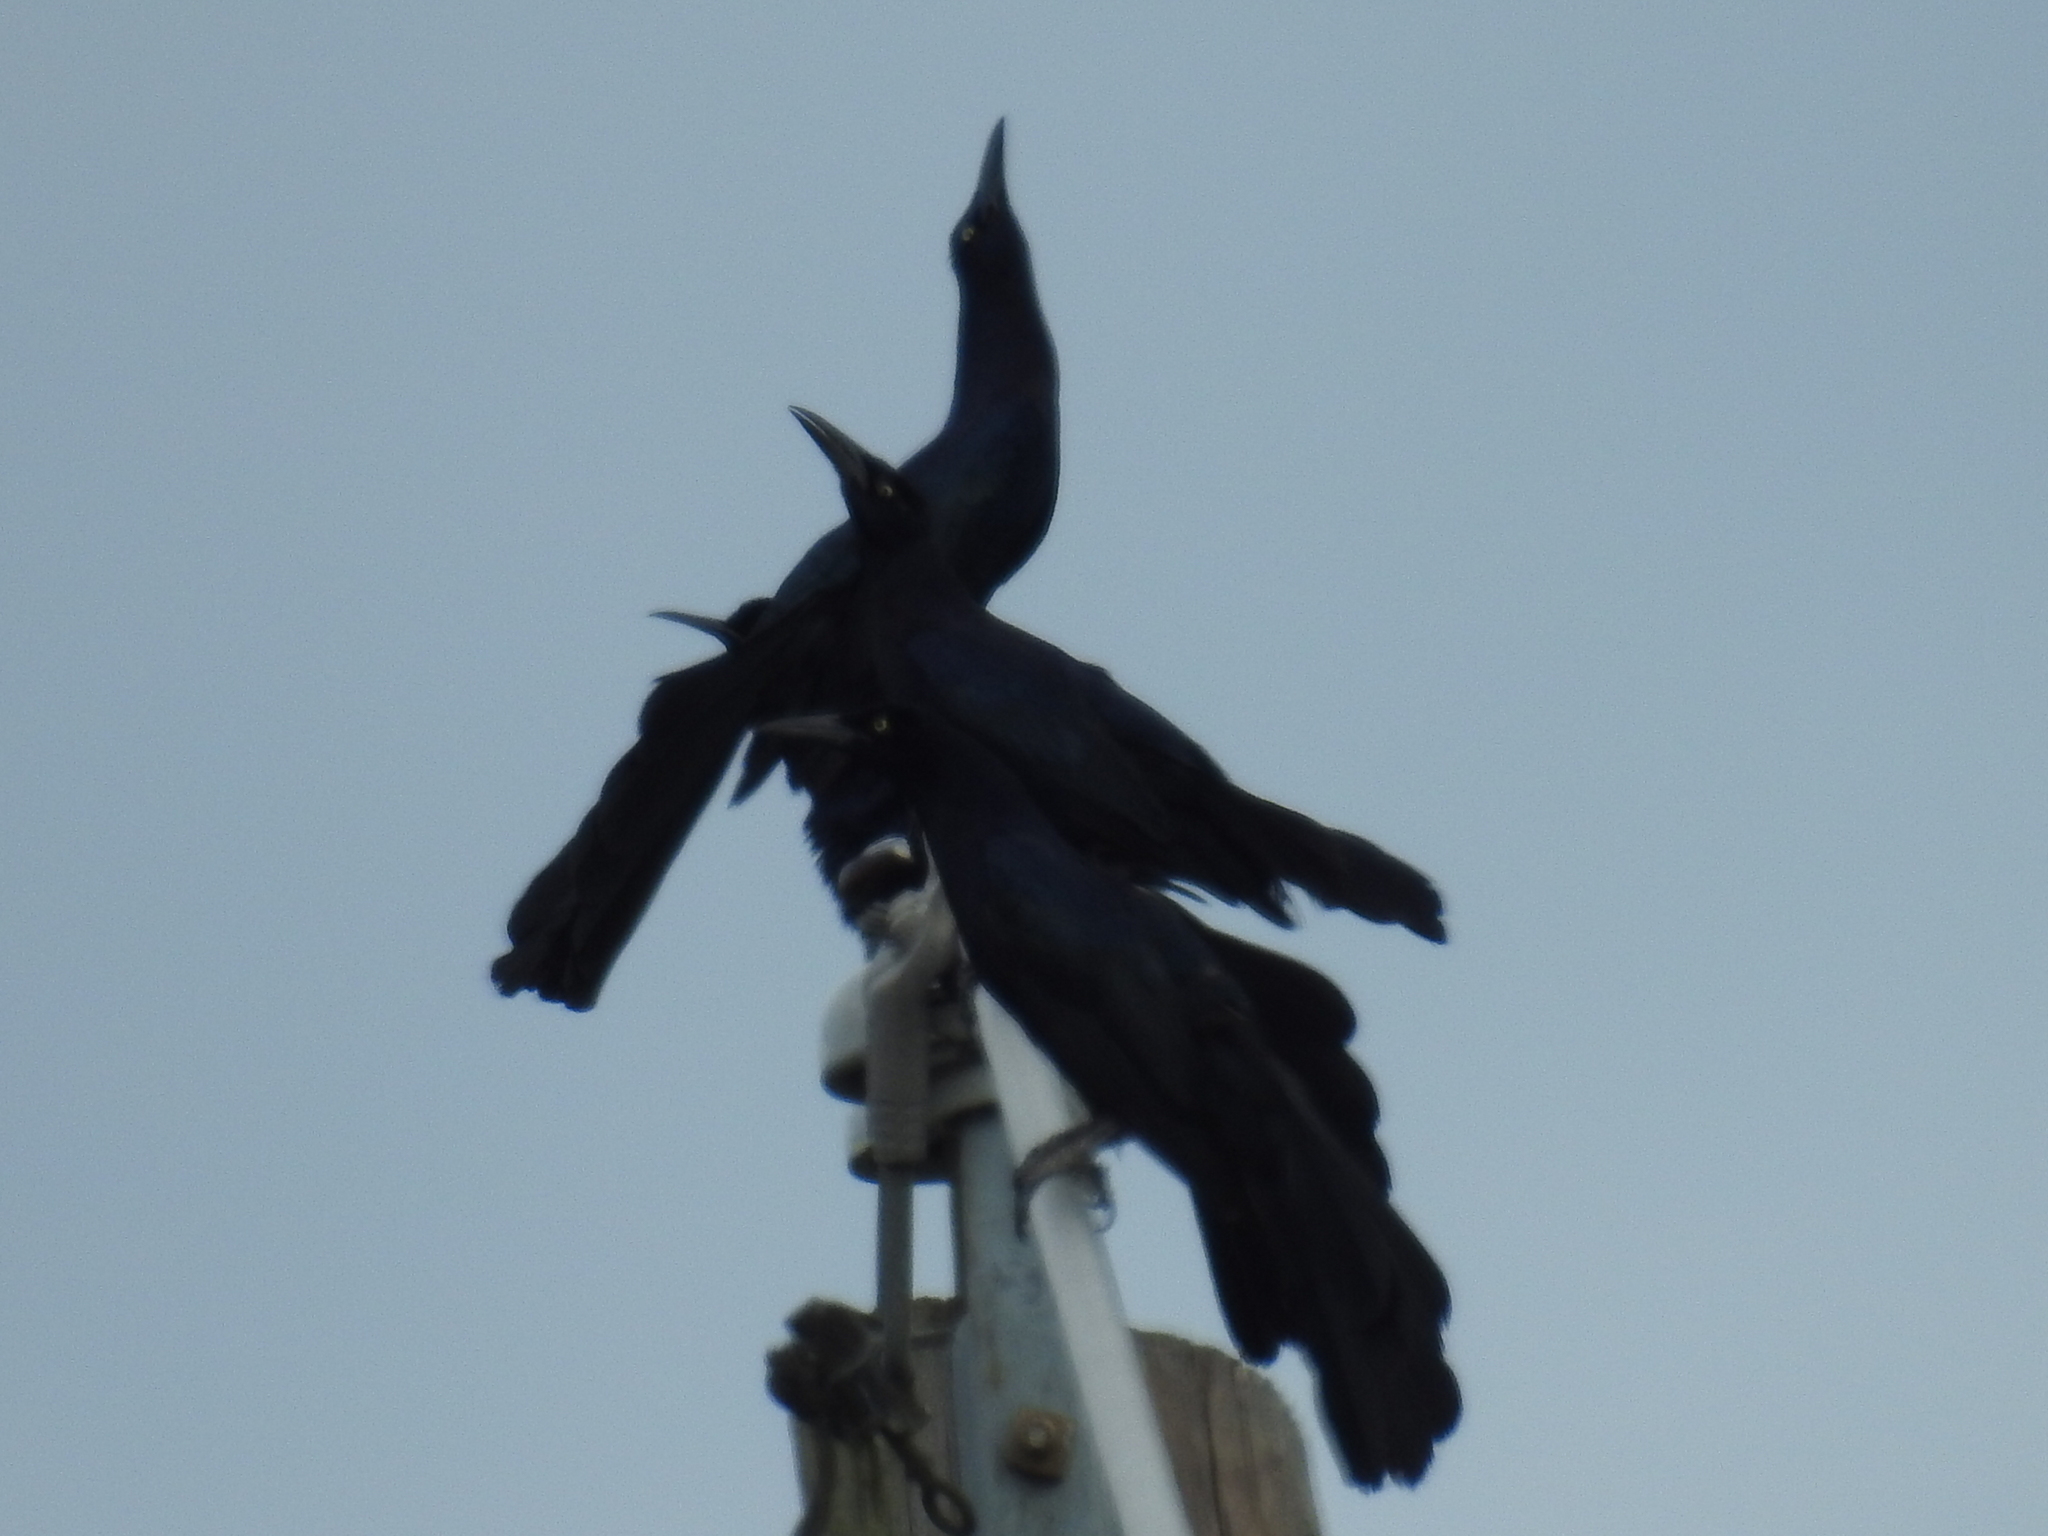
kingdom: Animalia
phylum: Chordata
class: Aves
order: Passeriformes
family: Icteridae
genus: Quiscalus
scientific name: Quiscalus mexicanus
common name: Great-tailed grackle
